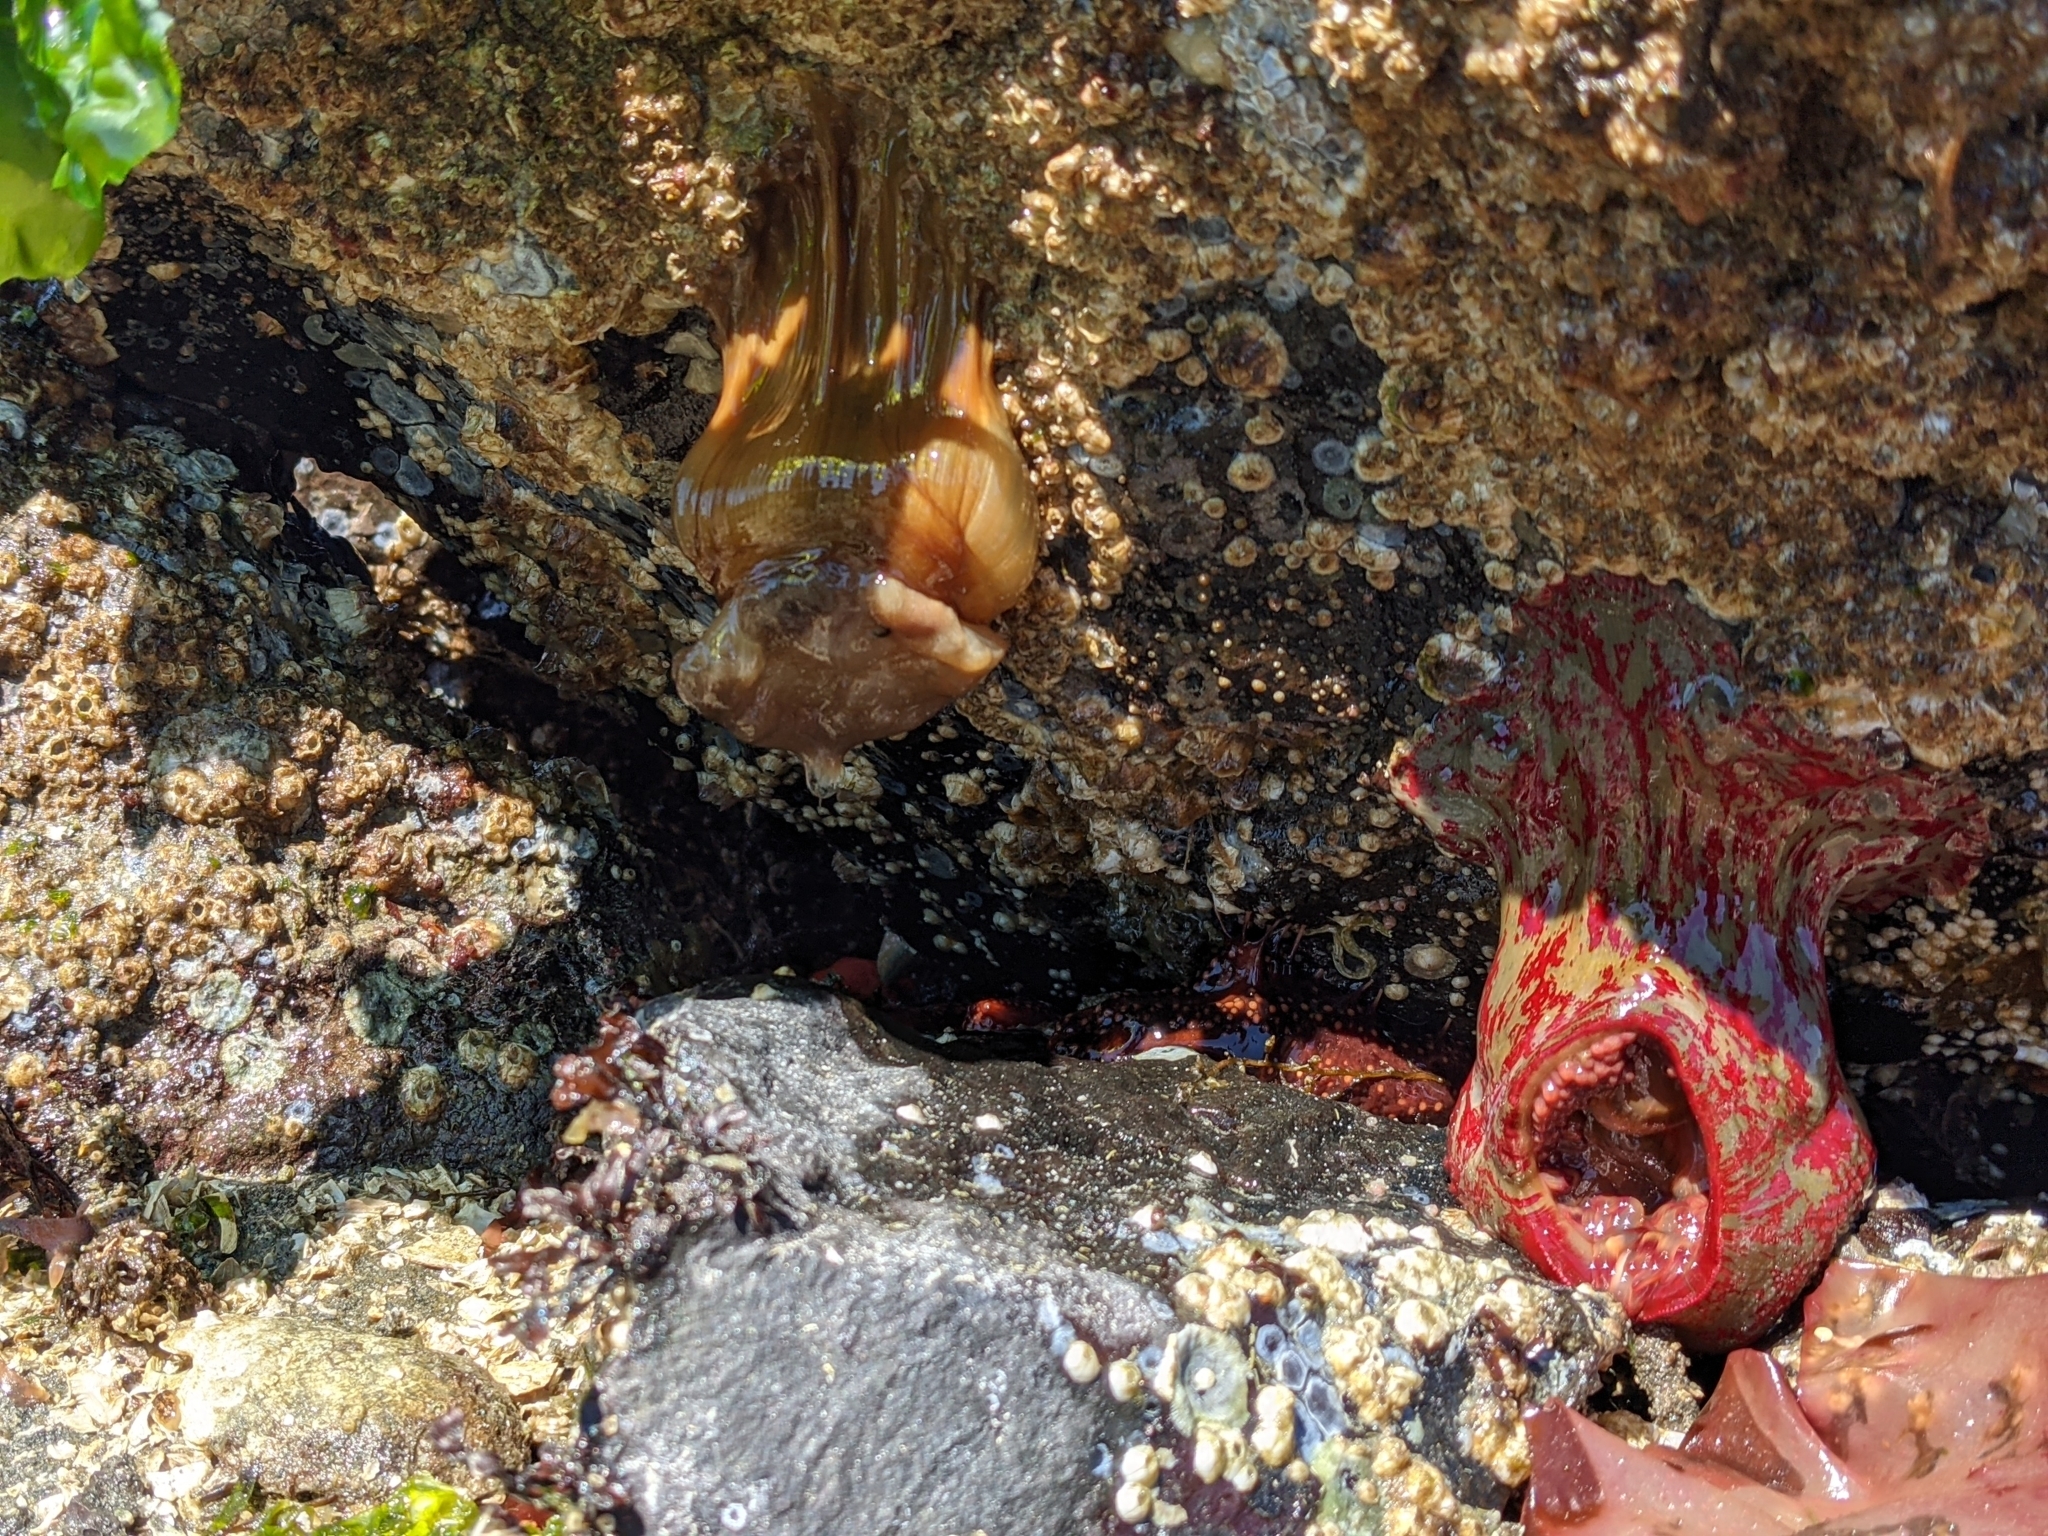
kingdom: Animalia
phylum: Cnidaria
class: Anthozoa
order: Actiniaria
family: Actiniidae
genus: Urticina
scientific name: Urticina grebelnyi
